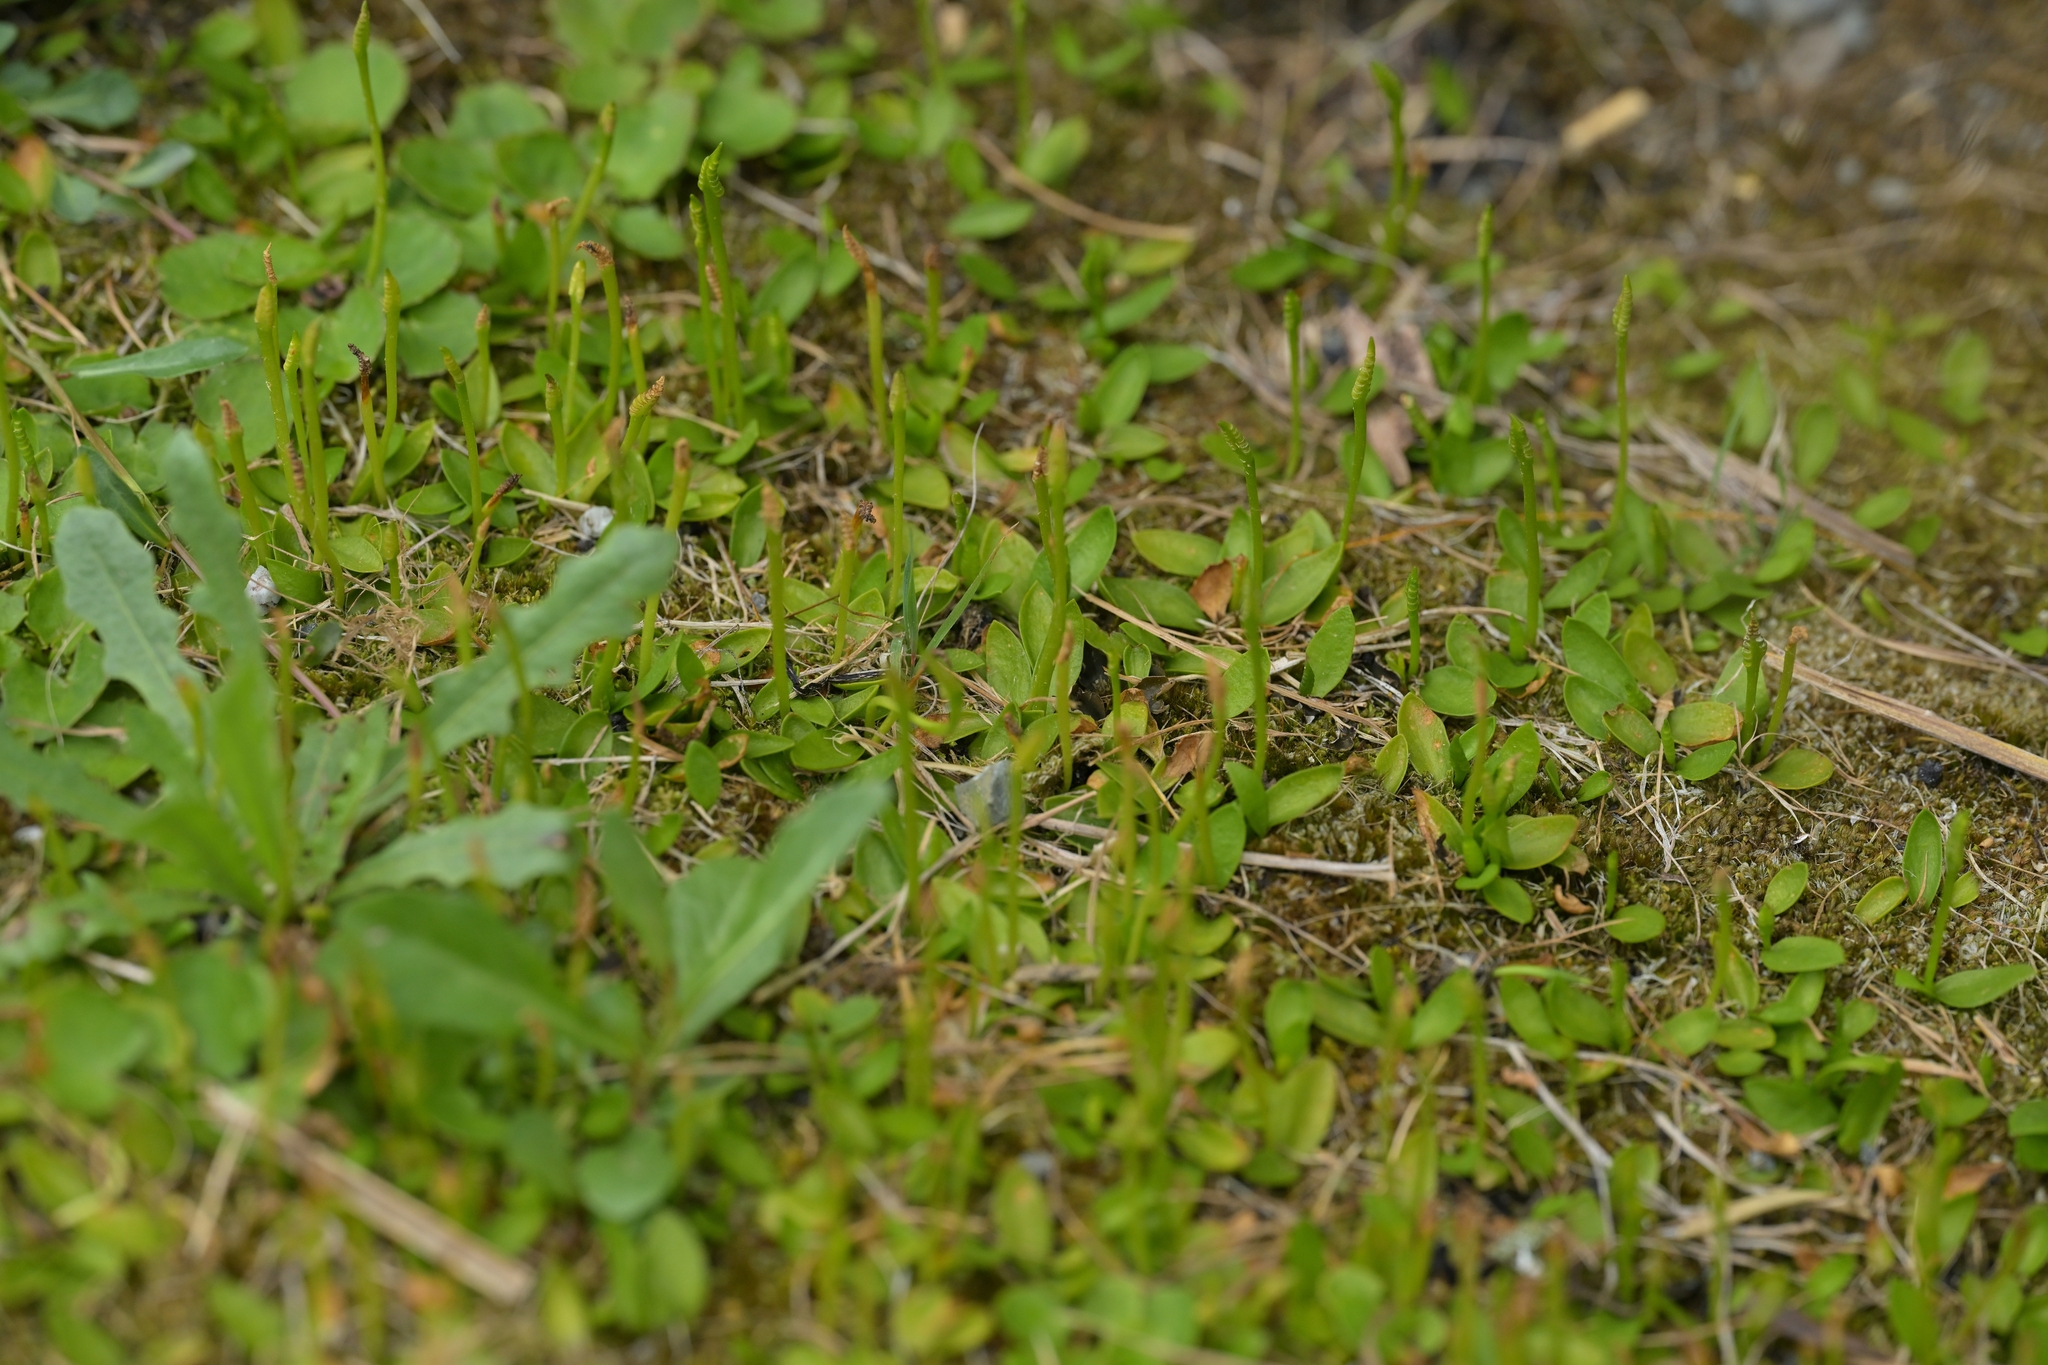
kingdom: Plantae
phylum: Tracheophyta
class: Polypodiopsida
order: Ophioglossales
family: Ophioglossaceae
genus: Ophioglossum
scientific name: Ophioglossum coriaceum
